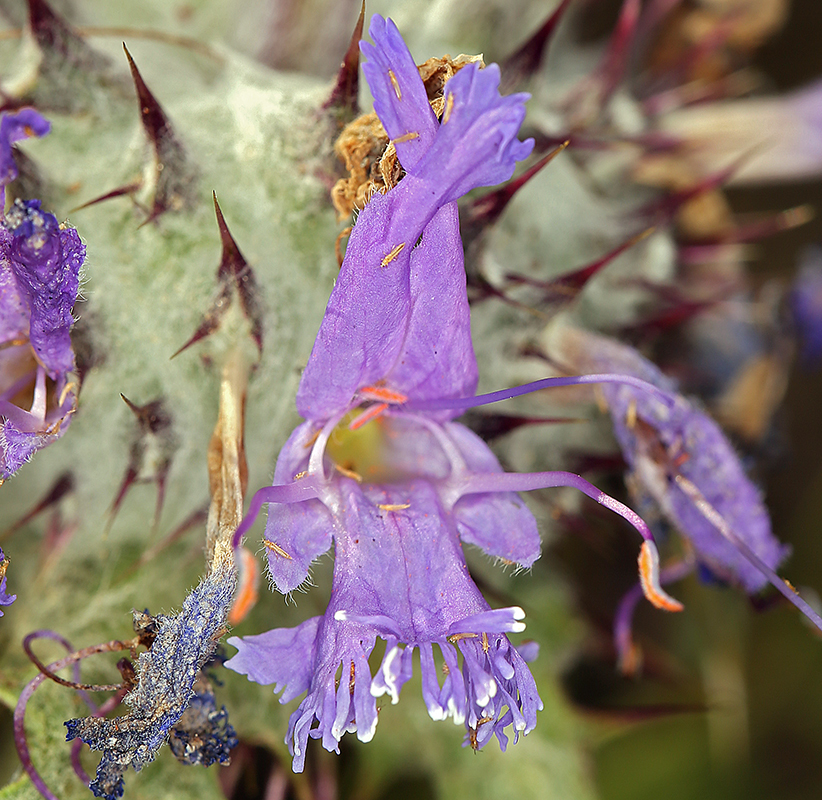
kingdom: Plantae
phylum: Tracheophyta
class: Magnoliopsida
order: Lamiales
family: Lamiaceae
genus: Salvia
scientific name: Salvia carduacea
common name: Thistle sage
